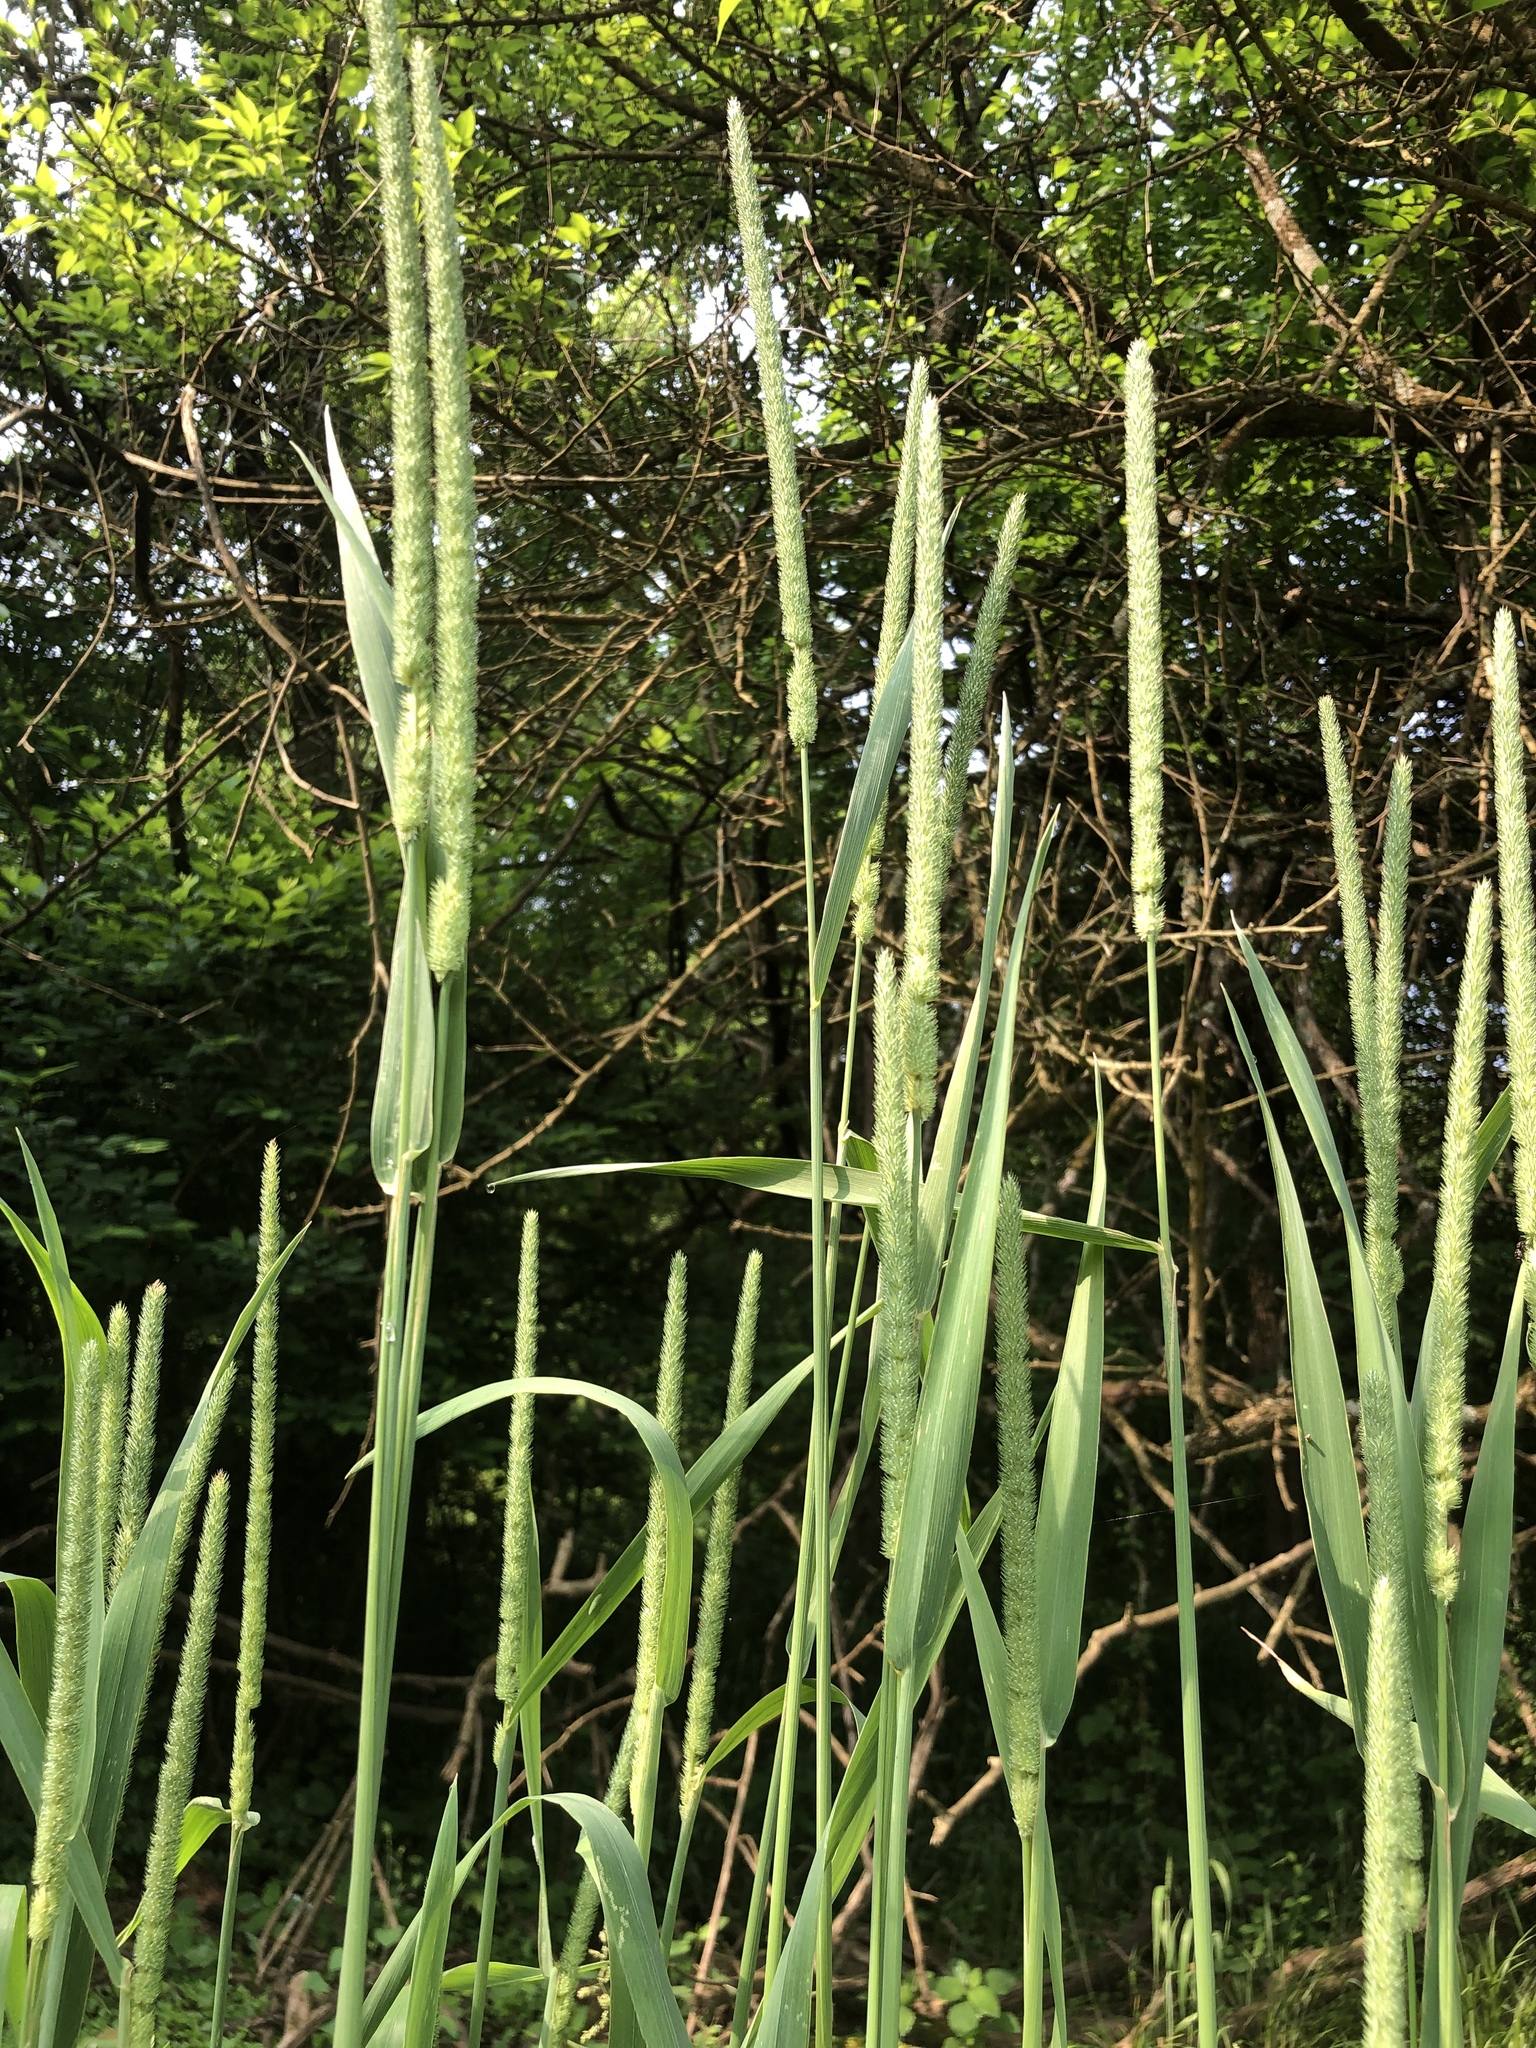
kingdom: Plantae
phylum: Tracheophyta
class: Liliopsida
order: Poales
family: Poaceae
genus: Phleum
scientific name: Phleum pratense
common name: Timothy grass
